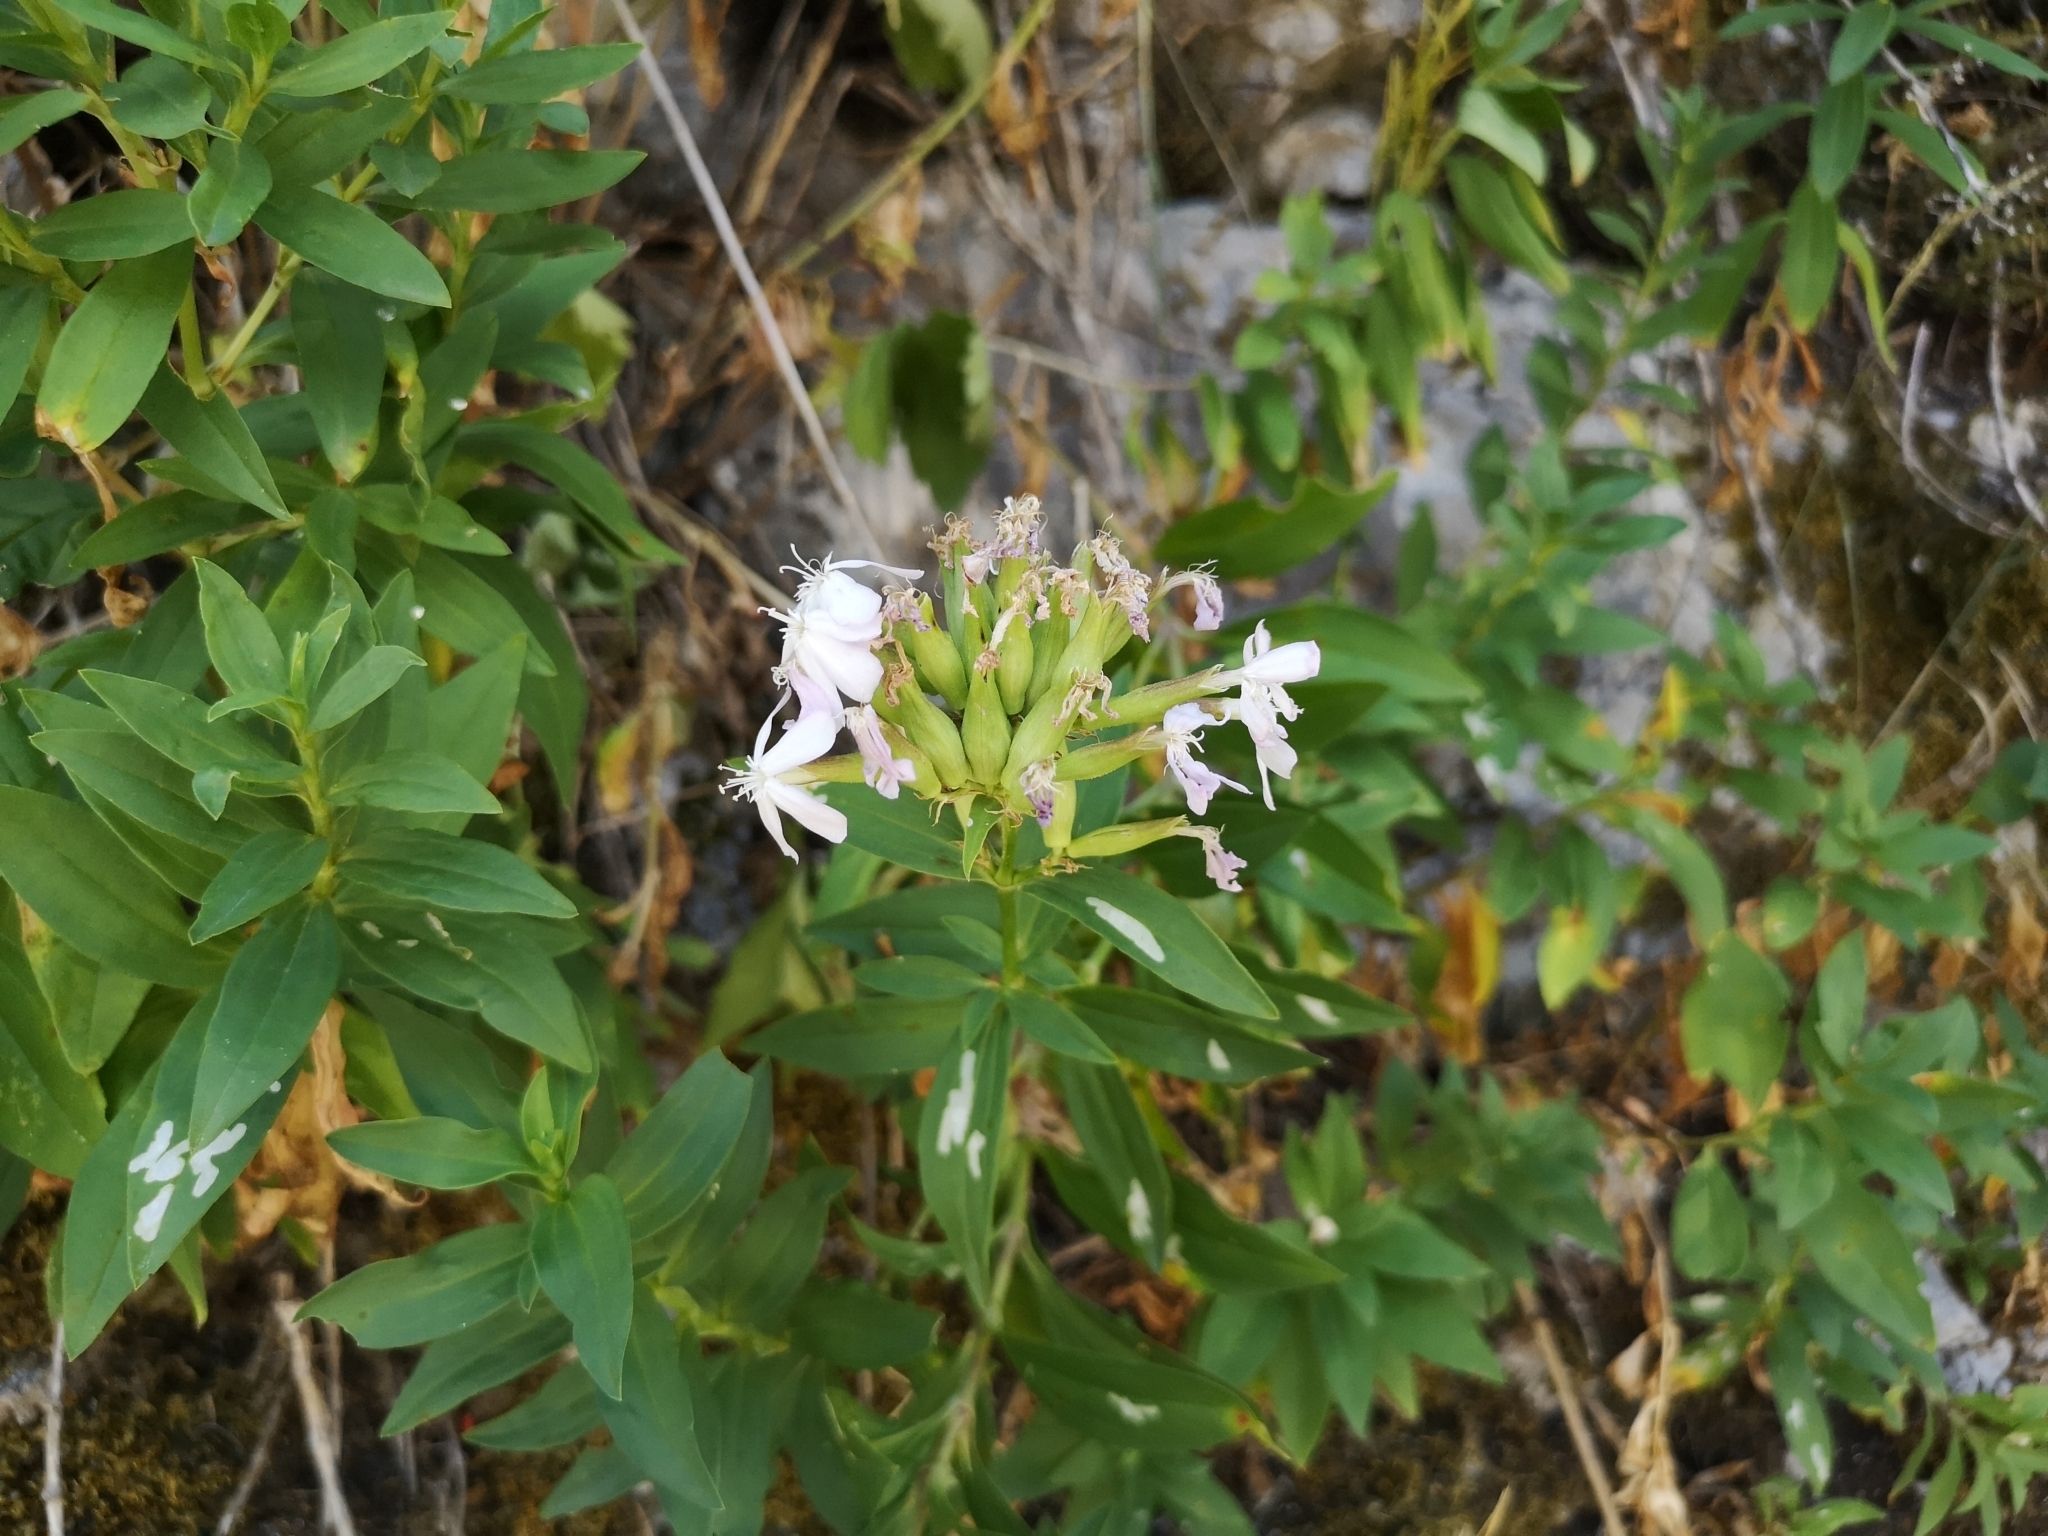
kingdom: Plantae
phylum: Tracheophyta
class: Magnoliopsida
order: Caryophyllales
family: Caryophyllaceae
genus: Saponaria
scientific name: Saponaria officinalis
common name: Soapwort
